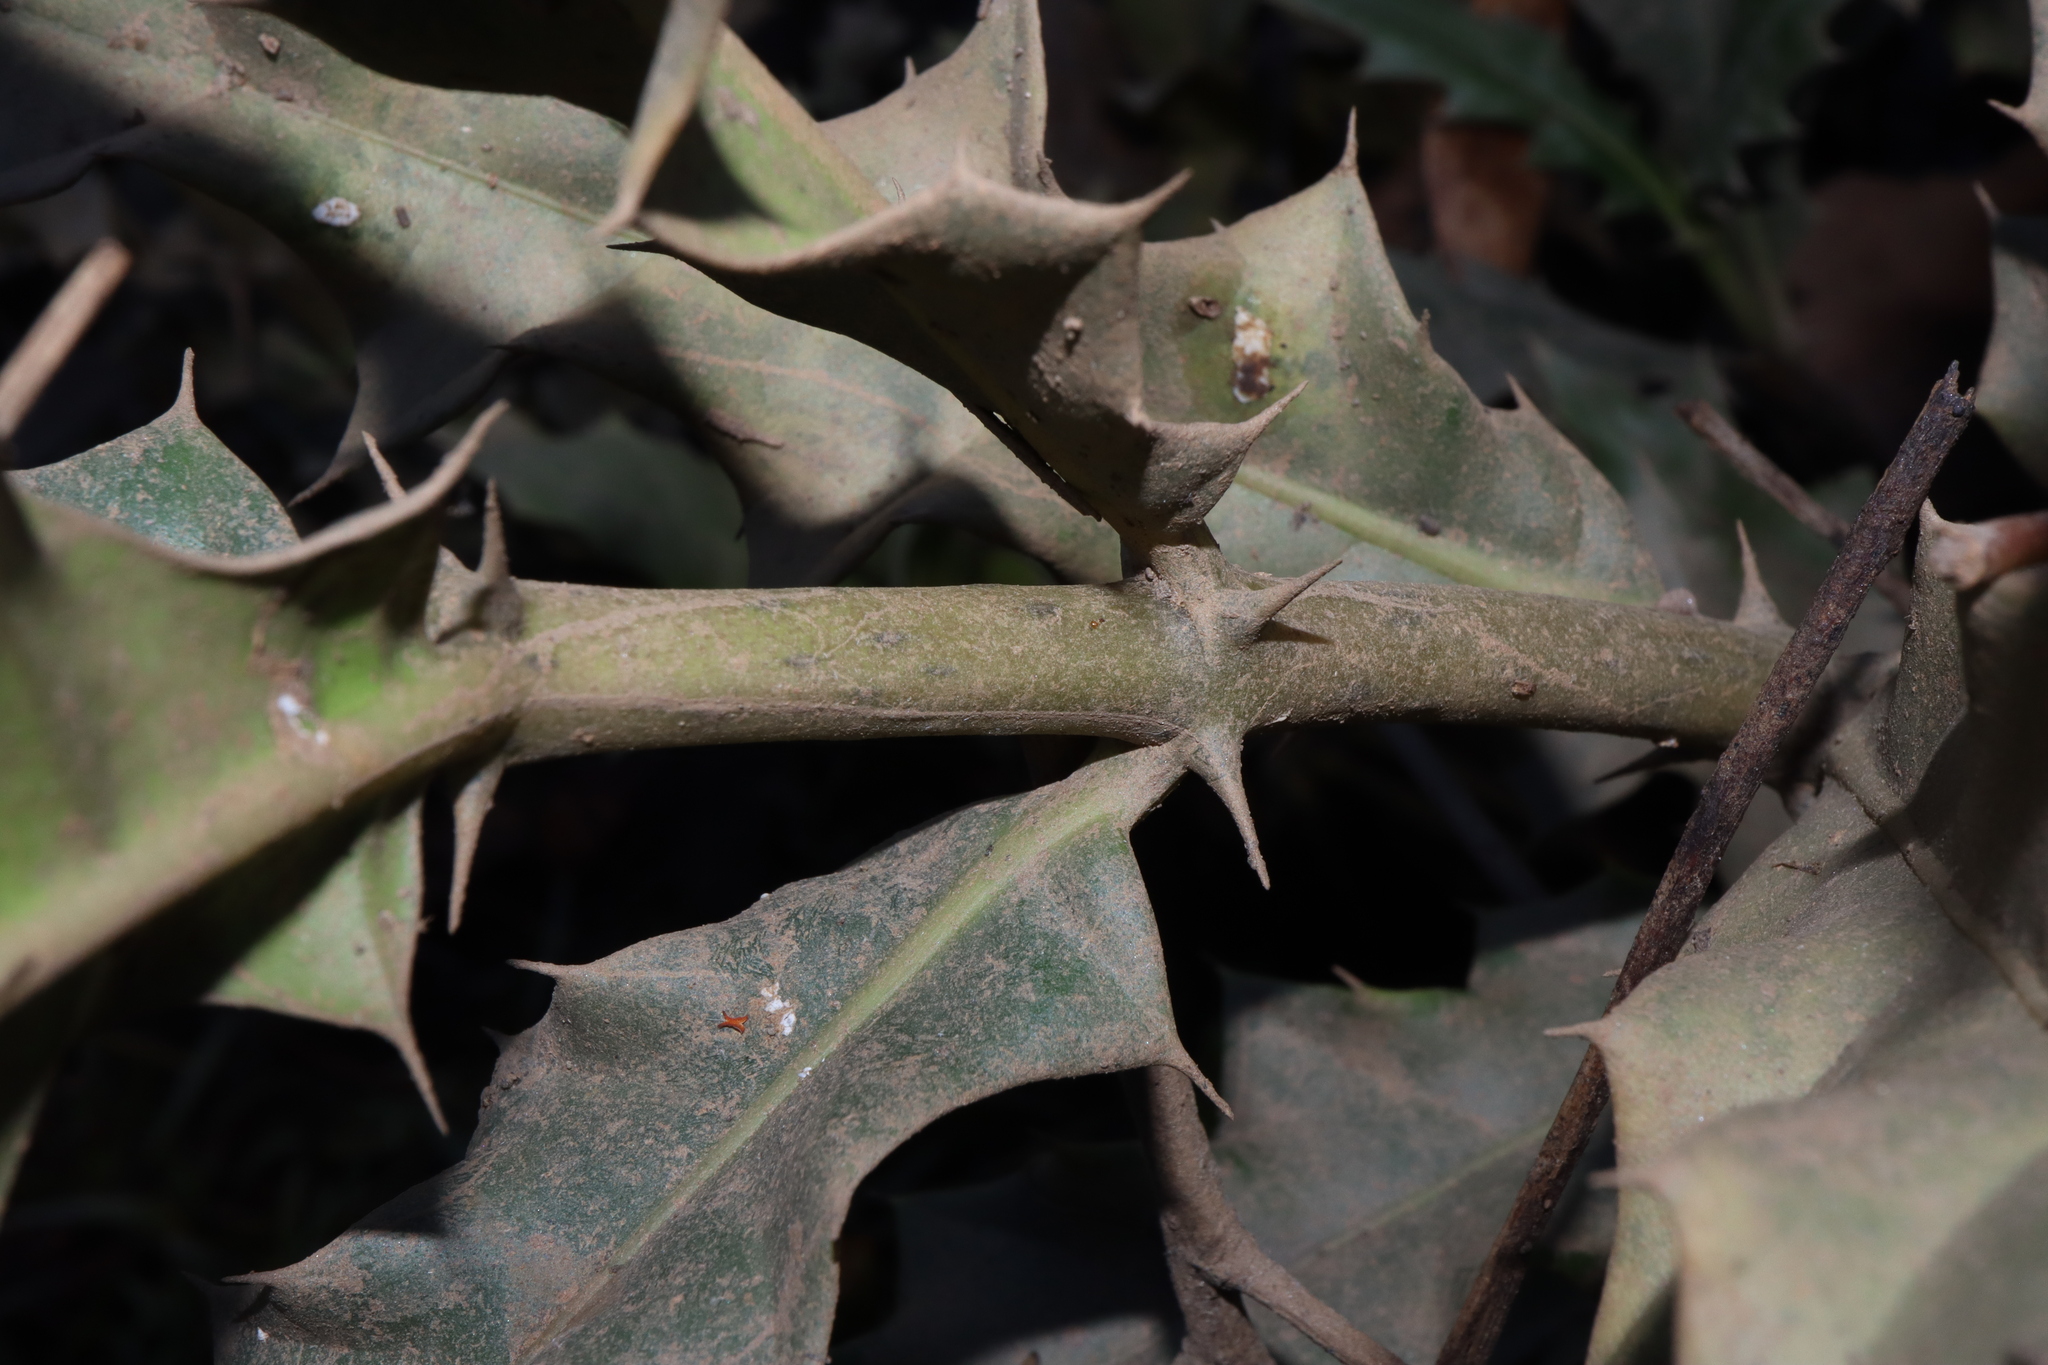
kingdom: Plantae
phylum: Tracheophyta
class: Magnoliopsida
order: Lamiales
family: Acanthaceae
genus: Acanthus
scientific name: Acanthus ilicifolius
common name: Holy mangrove
